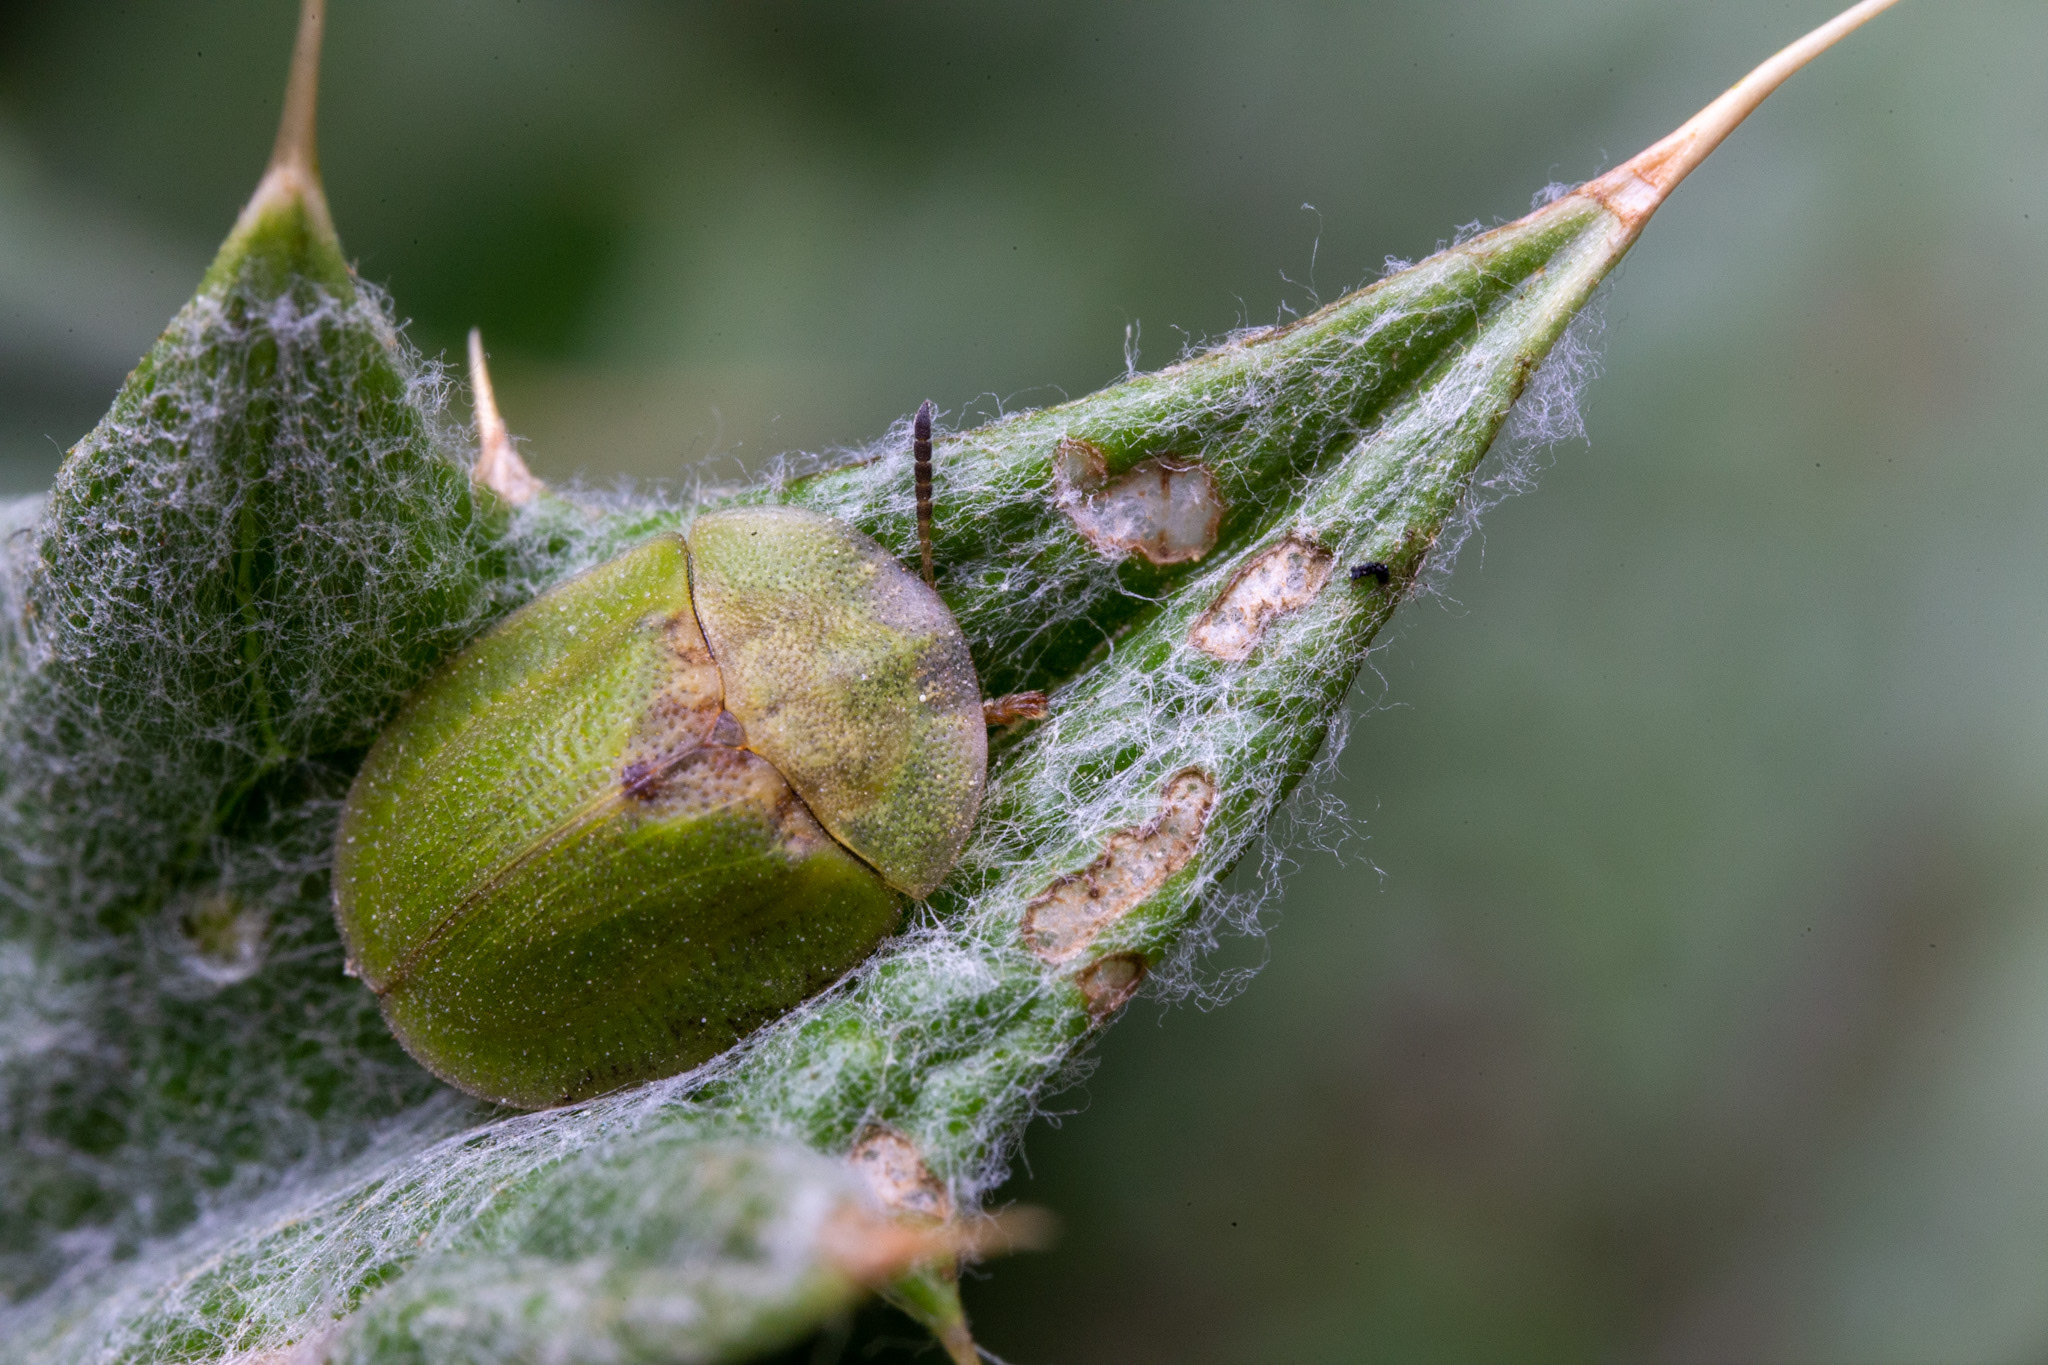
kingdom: Animalia
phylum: Arthropoda
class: Insecta
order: Coleoptera
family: Chrysomelidae
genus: Cassida
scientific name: Cassida rubiginosa
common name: Thistle tortoise beetle
